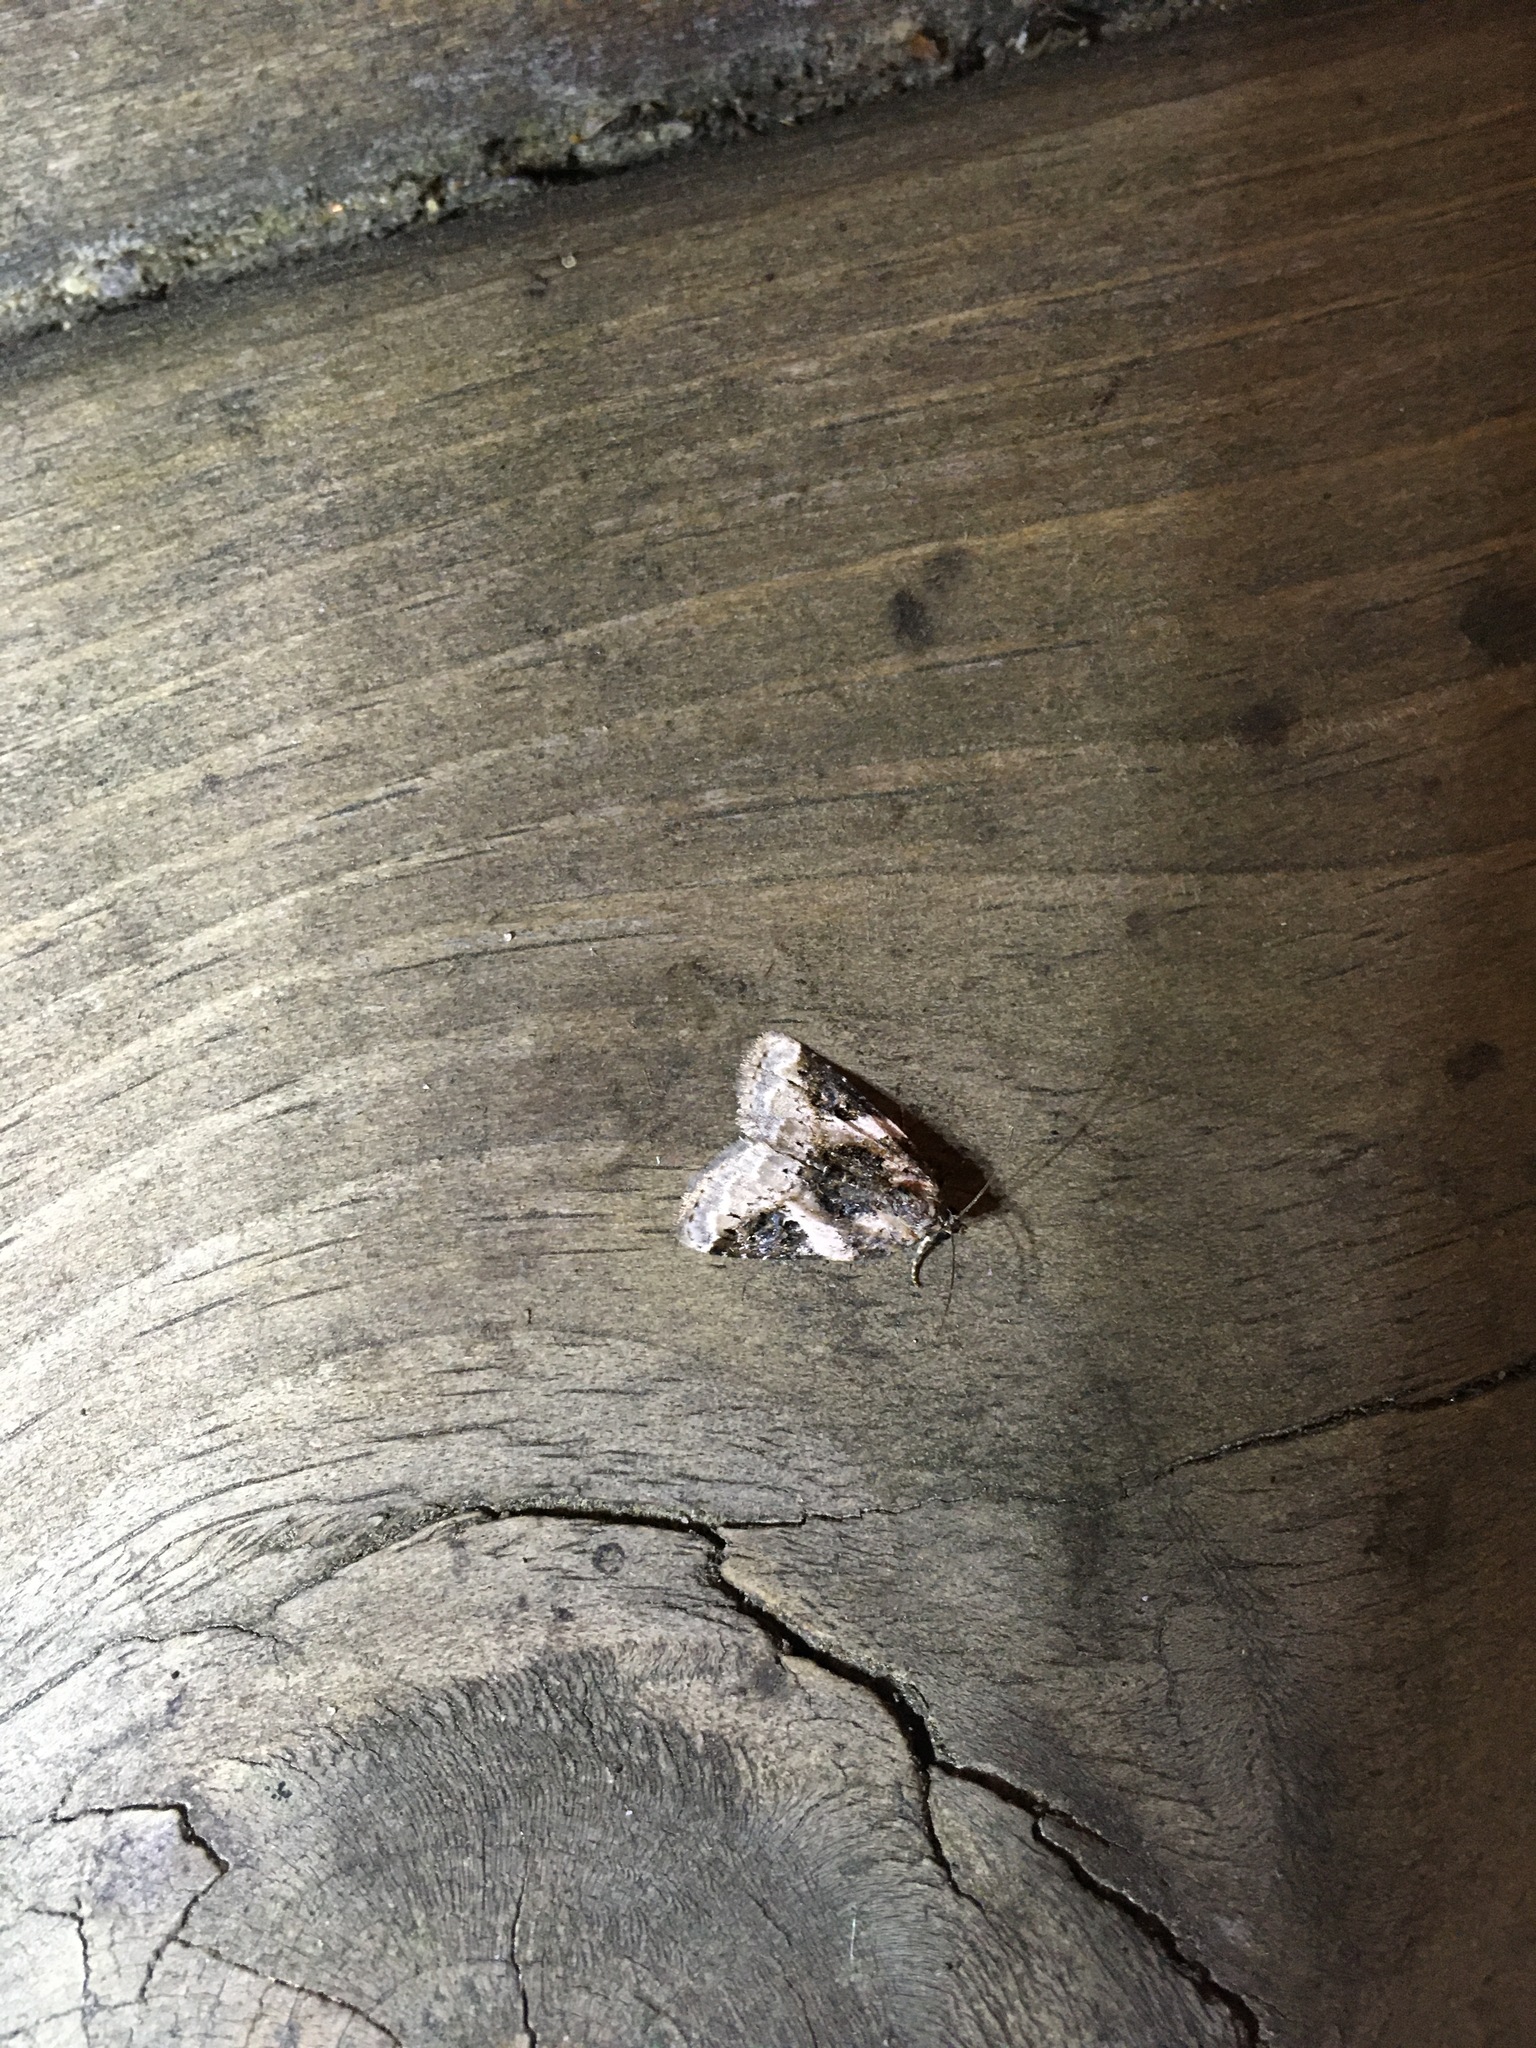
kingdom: Animalia
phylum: Arthropoda
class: Insecta
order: Lepidoptera
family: Noctuidae
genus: Pseudeustrotia
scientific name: Pseudeustrotia carneola
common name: Pink-barred lithacodia moth
